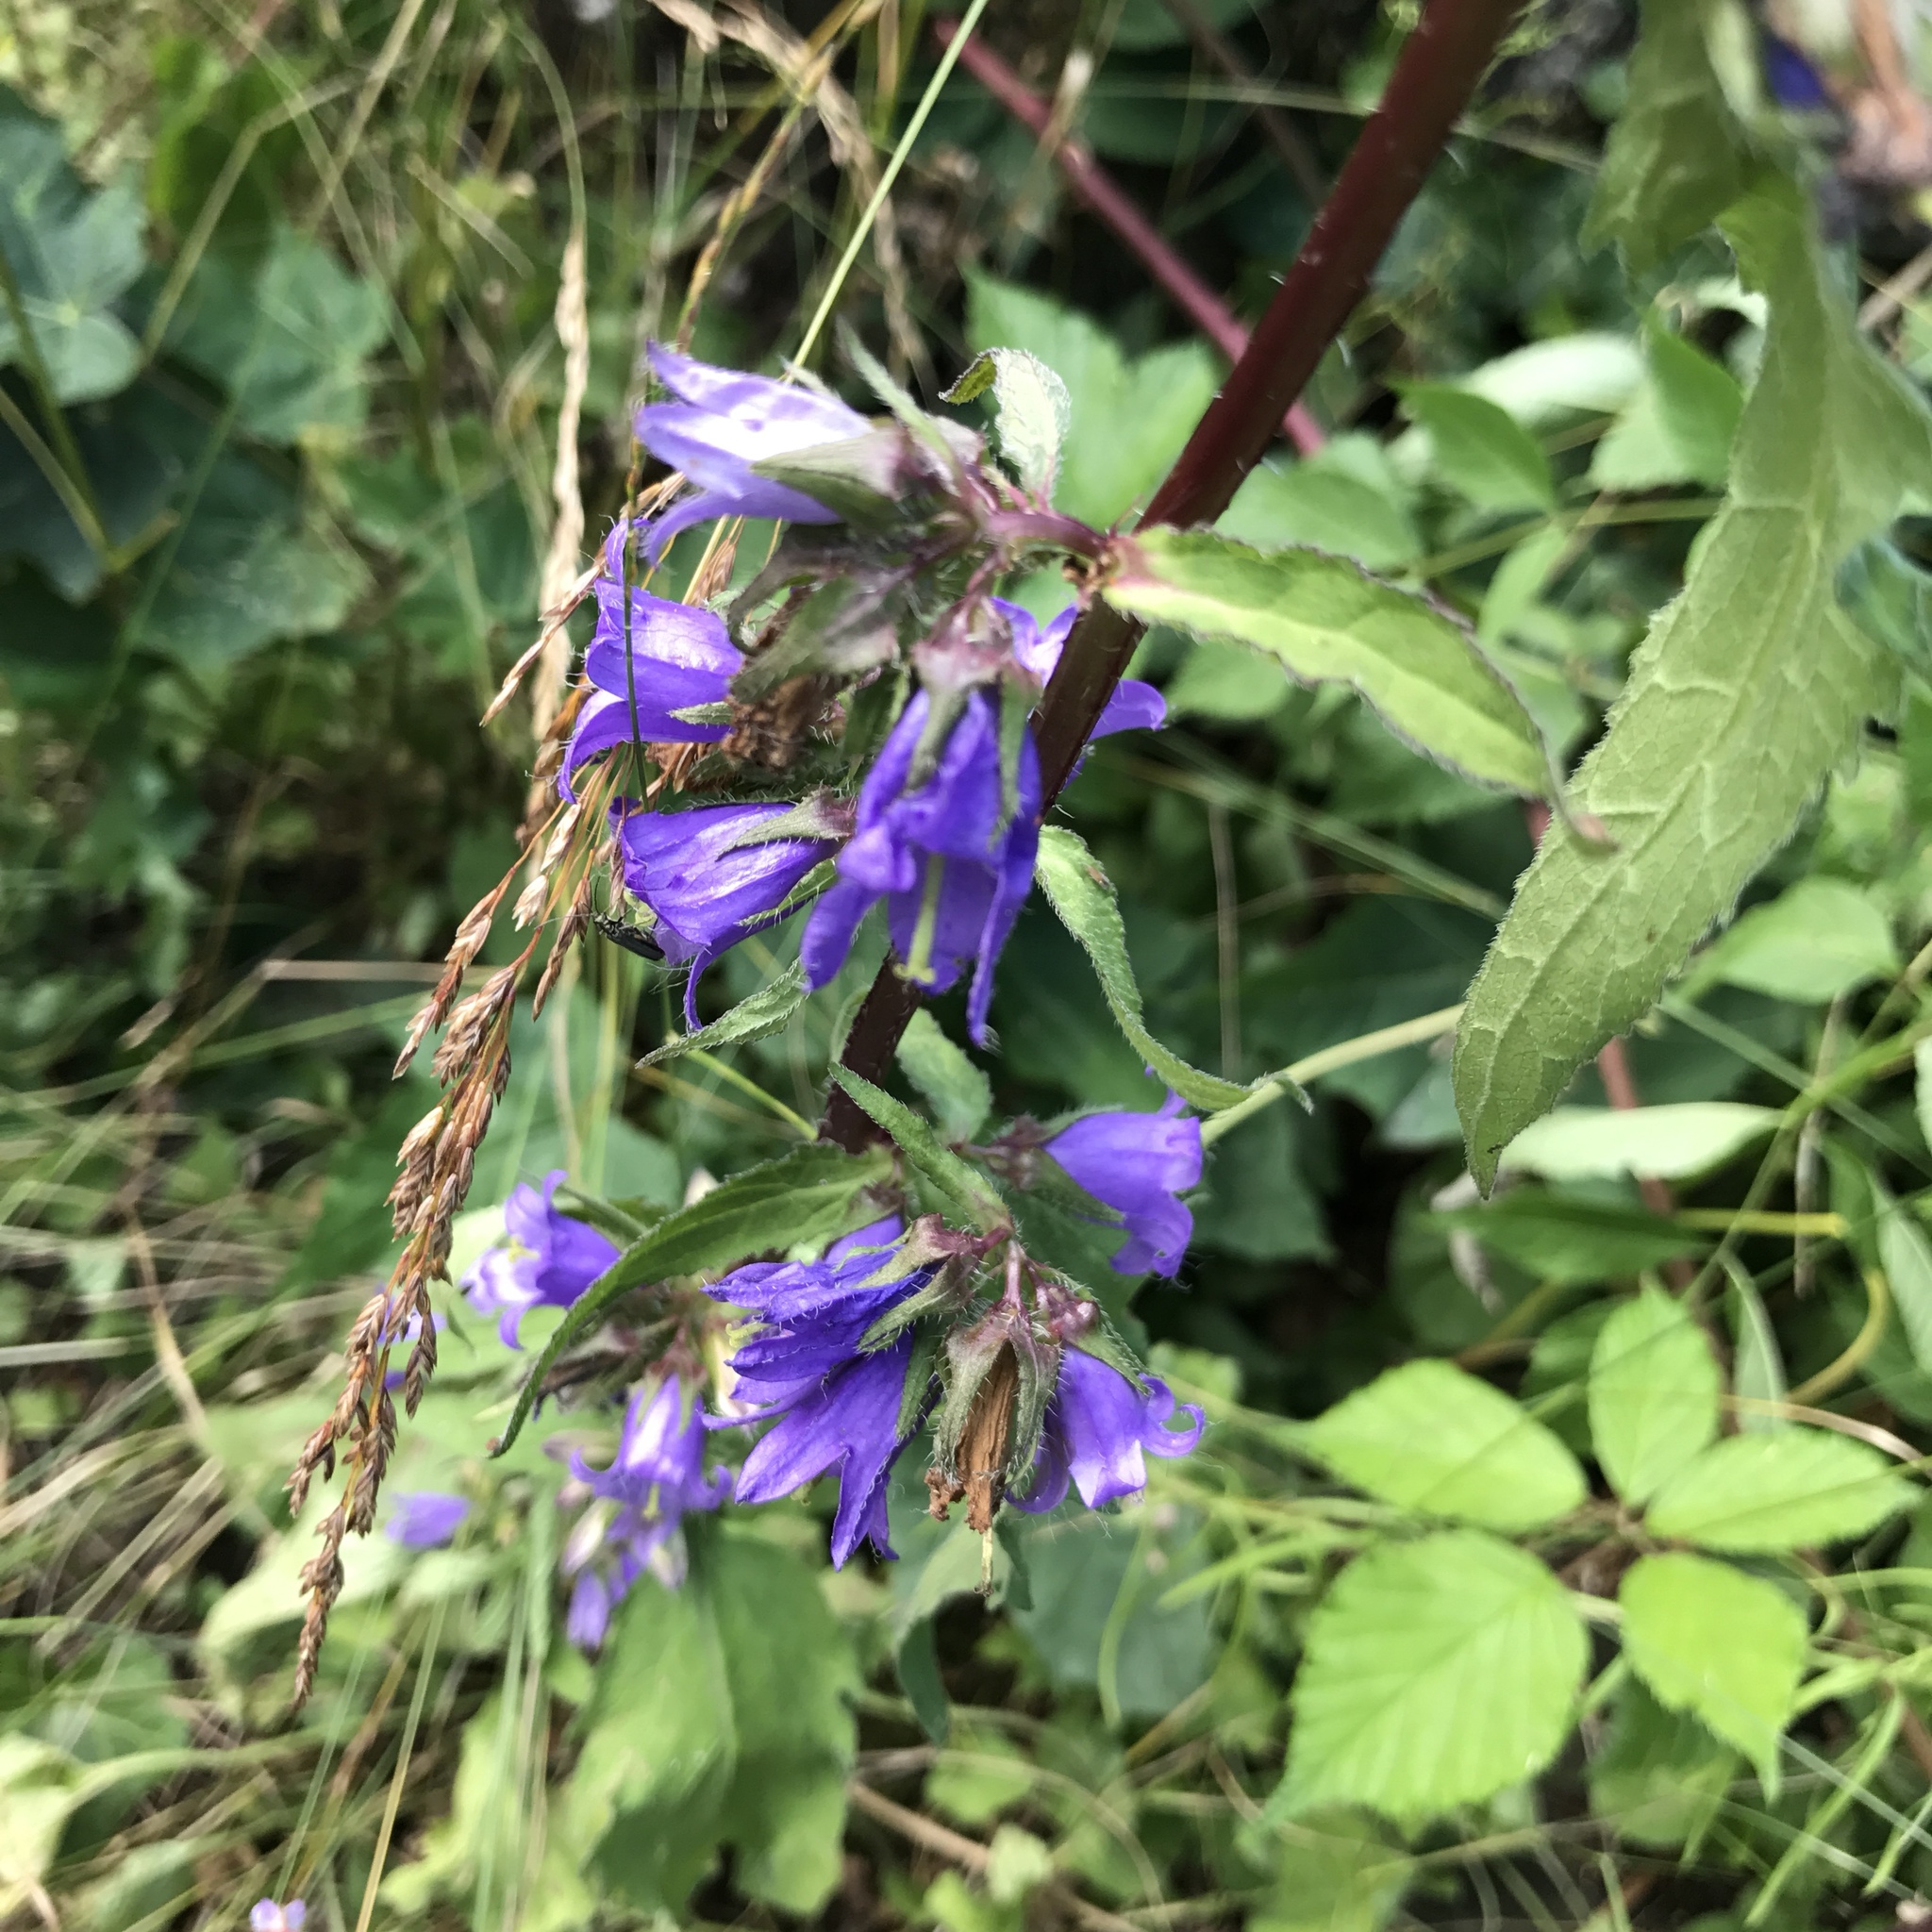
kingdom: Plantae
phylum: Tracheophyta
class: Magnoliopsida
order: Asterales
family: Campanulaceae
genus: Campanula
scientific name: Campanula trachelium
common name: Nettle-leaved bellflower
